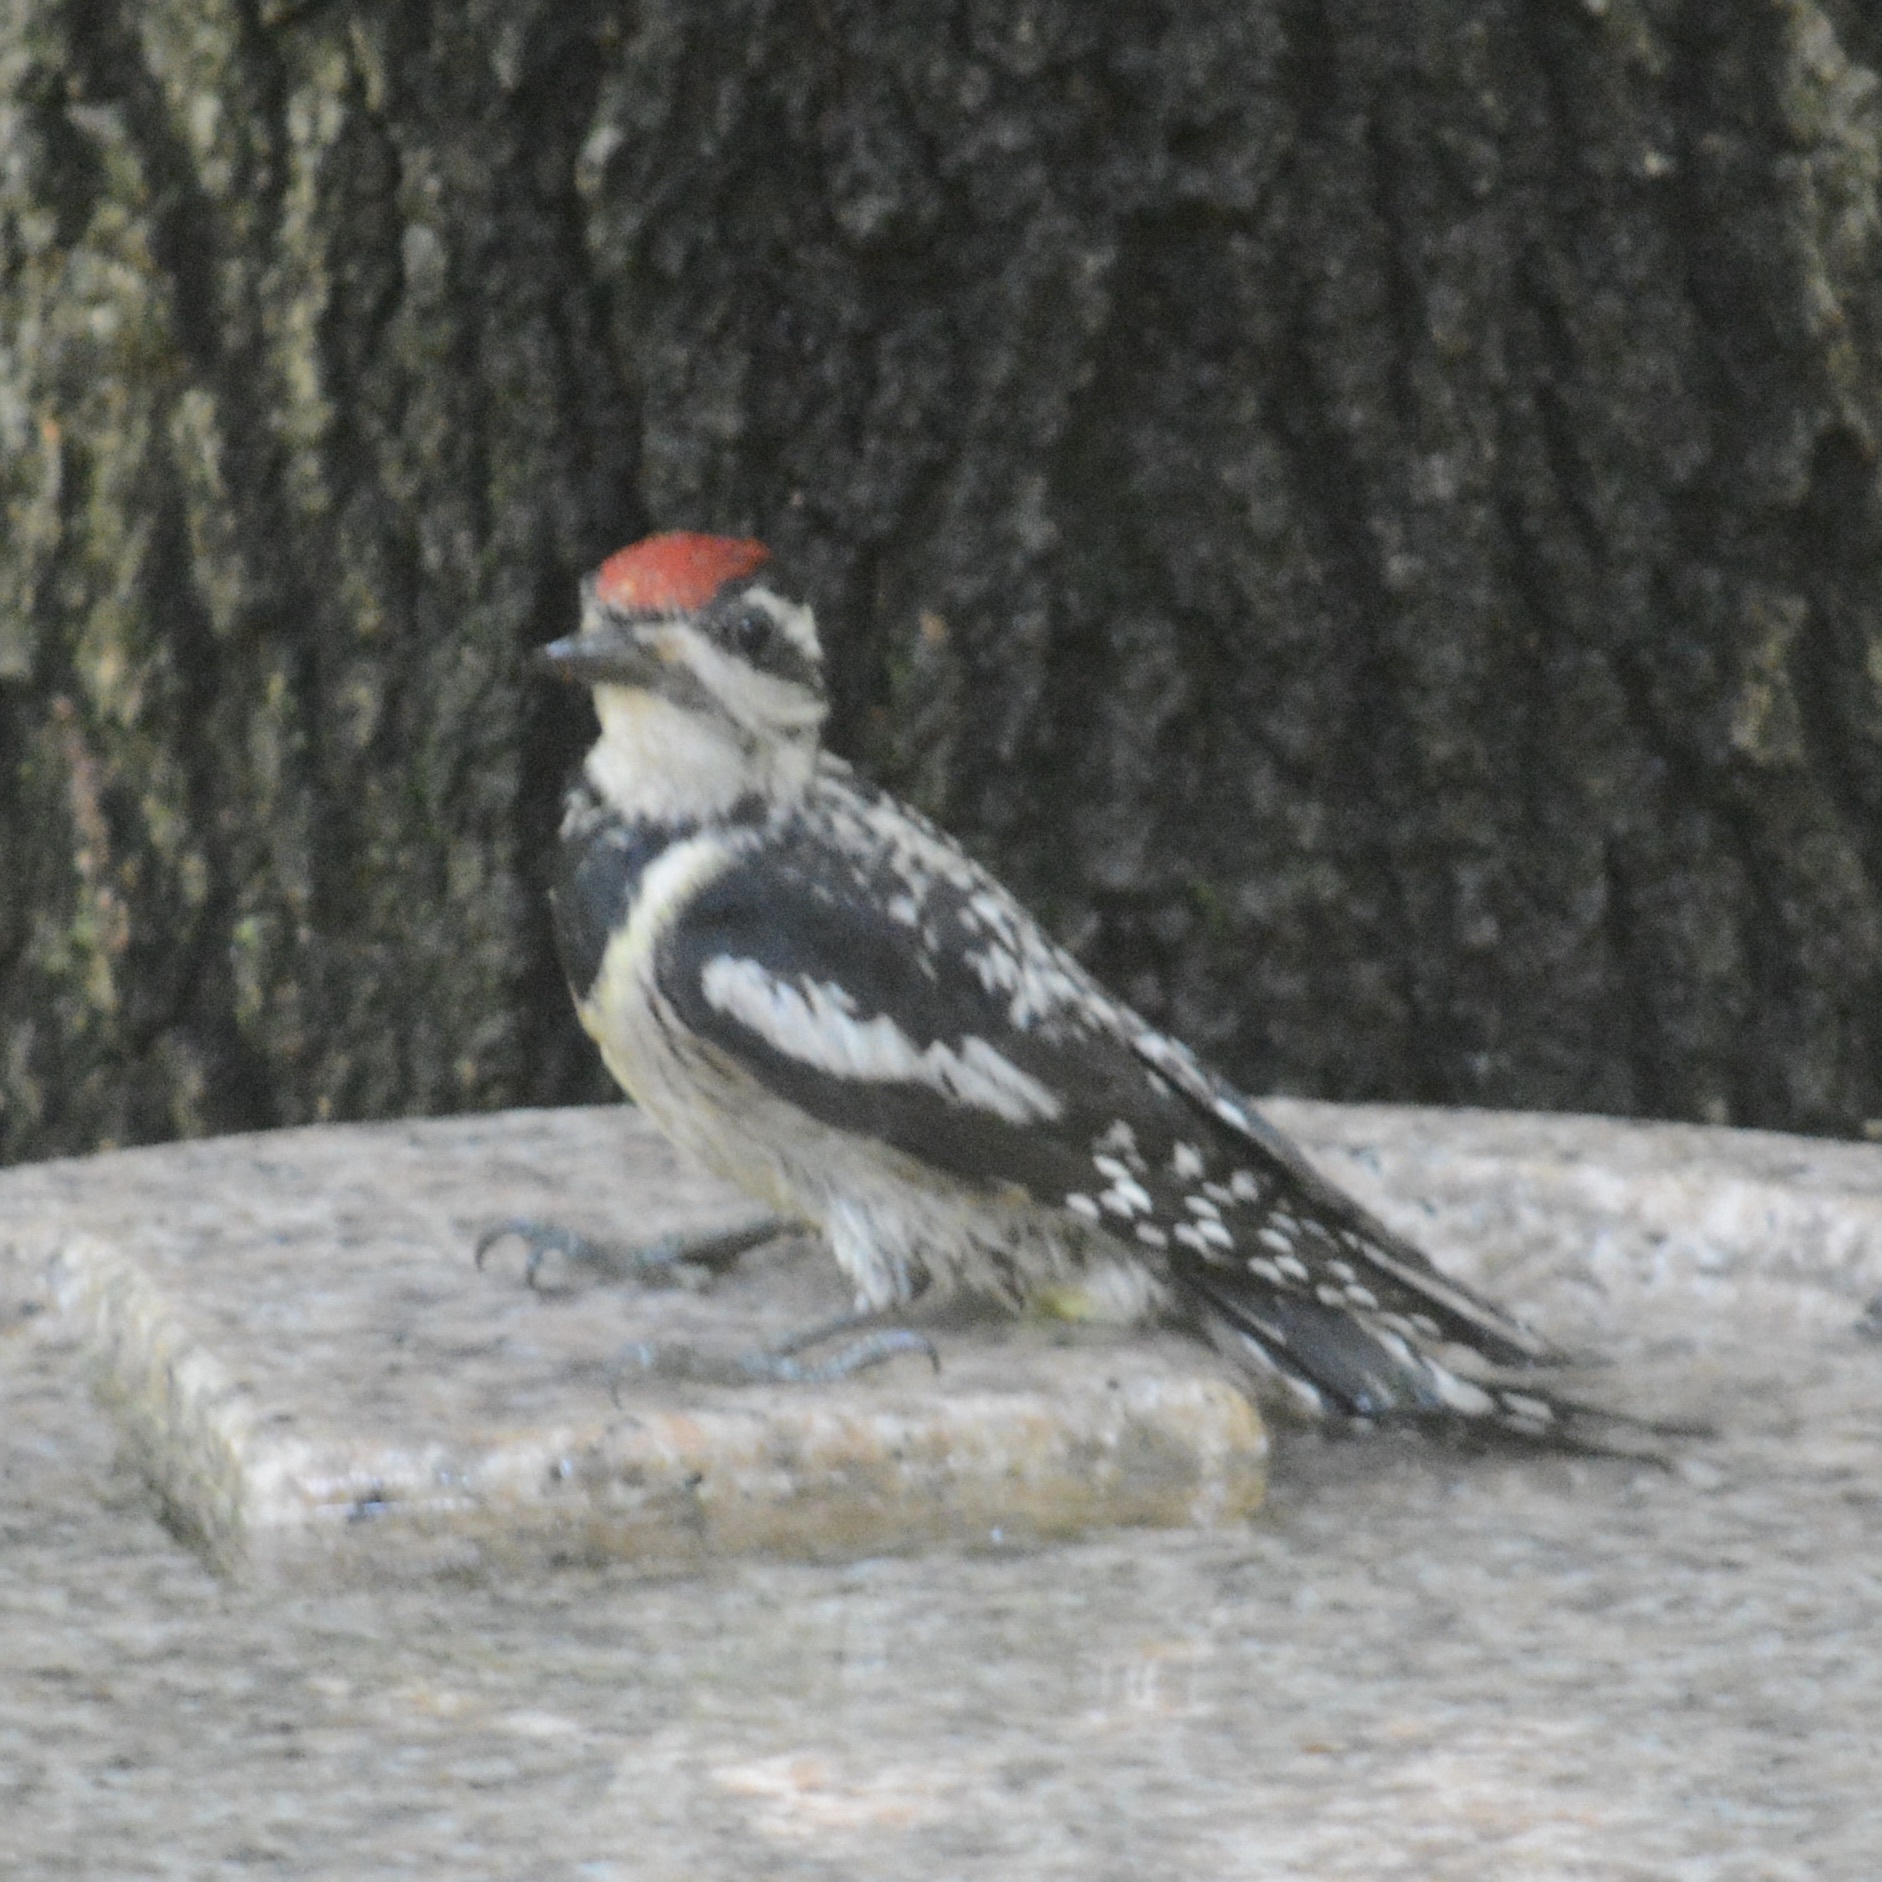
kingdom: Animalia
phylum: Chordata
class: Aves
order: Piciformes
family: Picidae
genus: Sphyrapicus
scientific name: Sphyrapicus varius
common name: Yellow-bellied sapsucker
